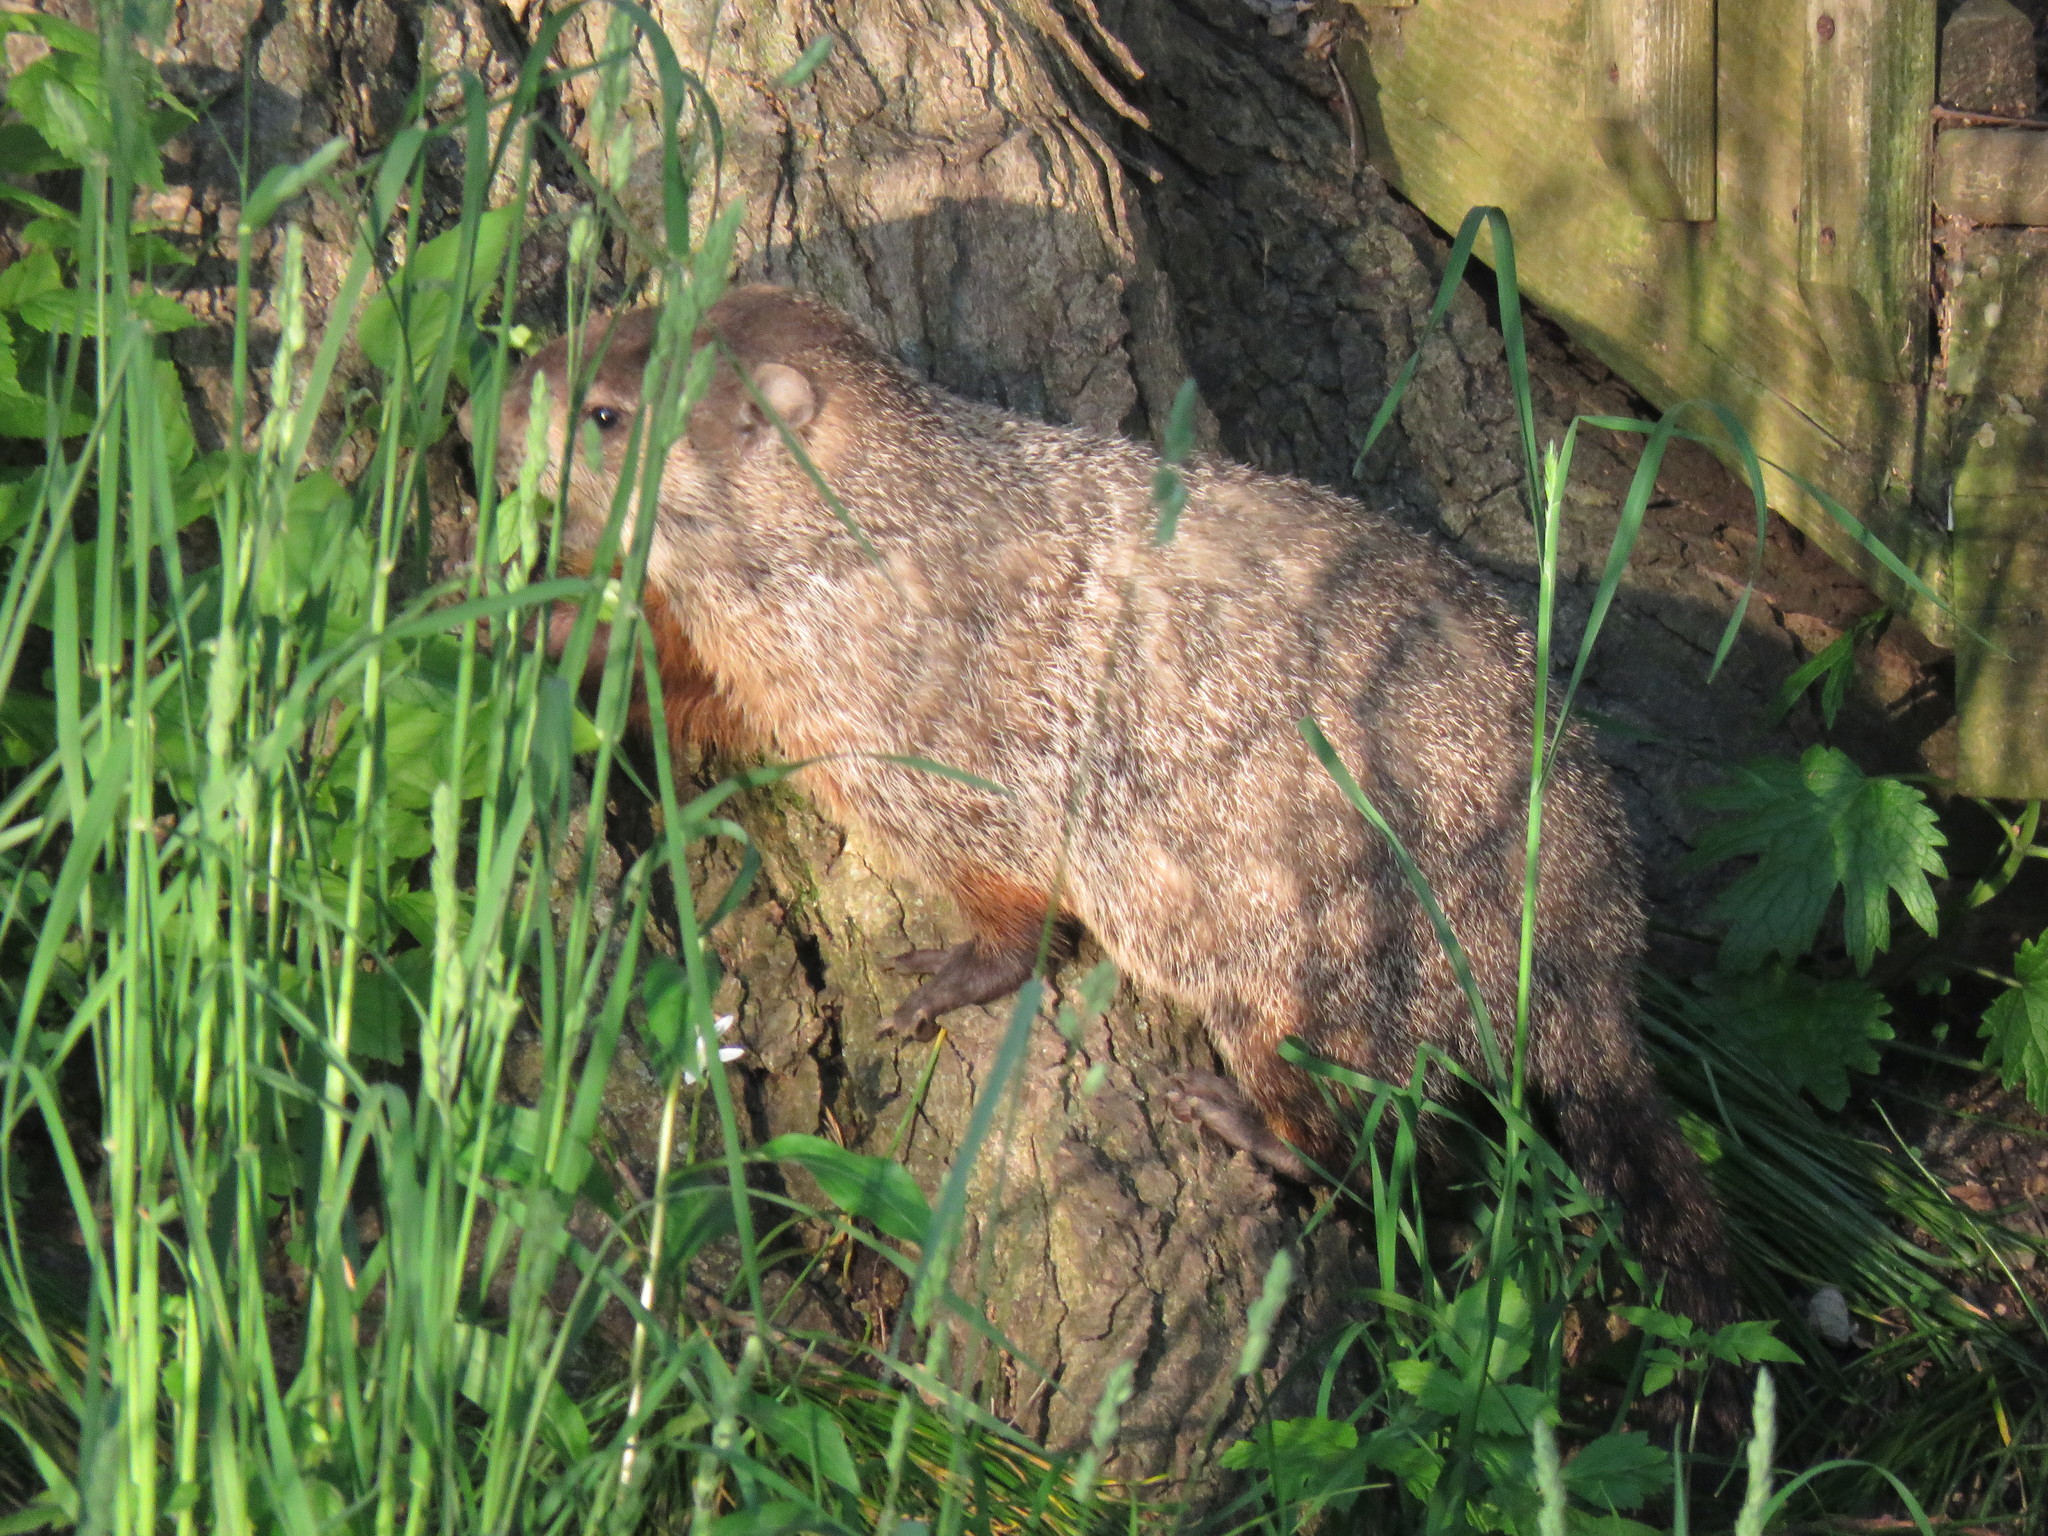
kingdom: Animalia
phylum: Chordata
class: Mammalia
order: Rodentia
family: Sciuridae
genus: Marmota
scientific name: Marmota monax
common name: Groundhog
